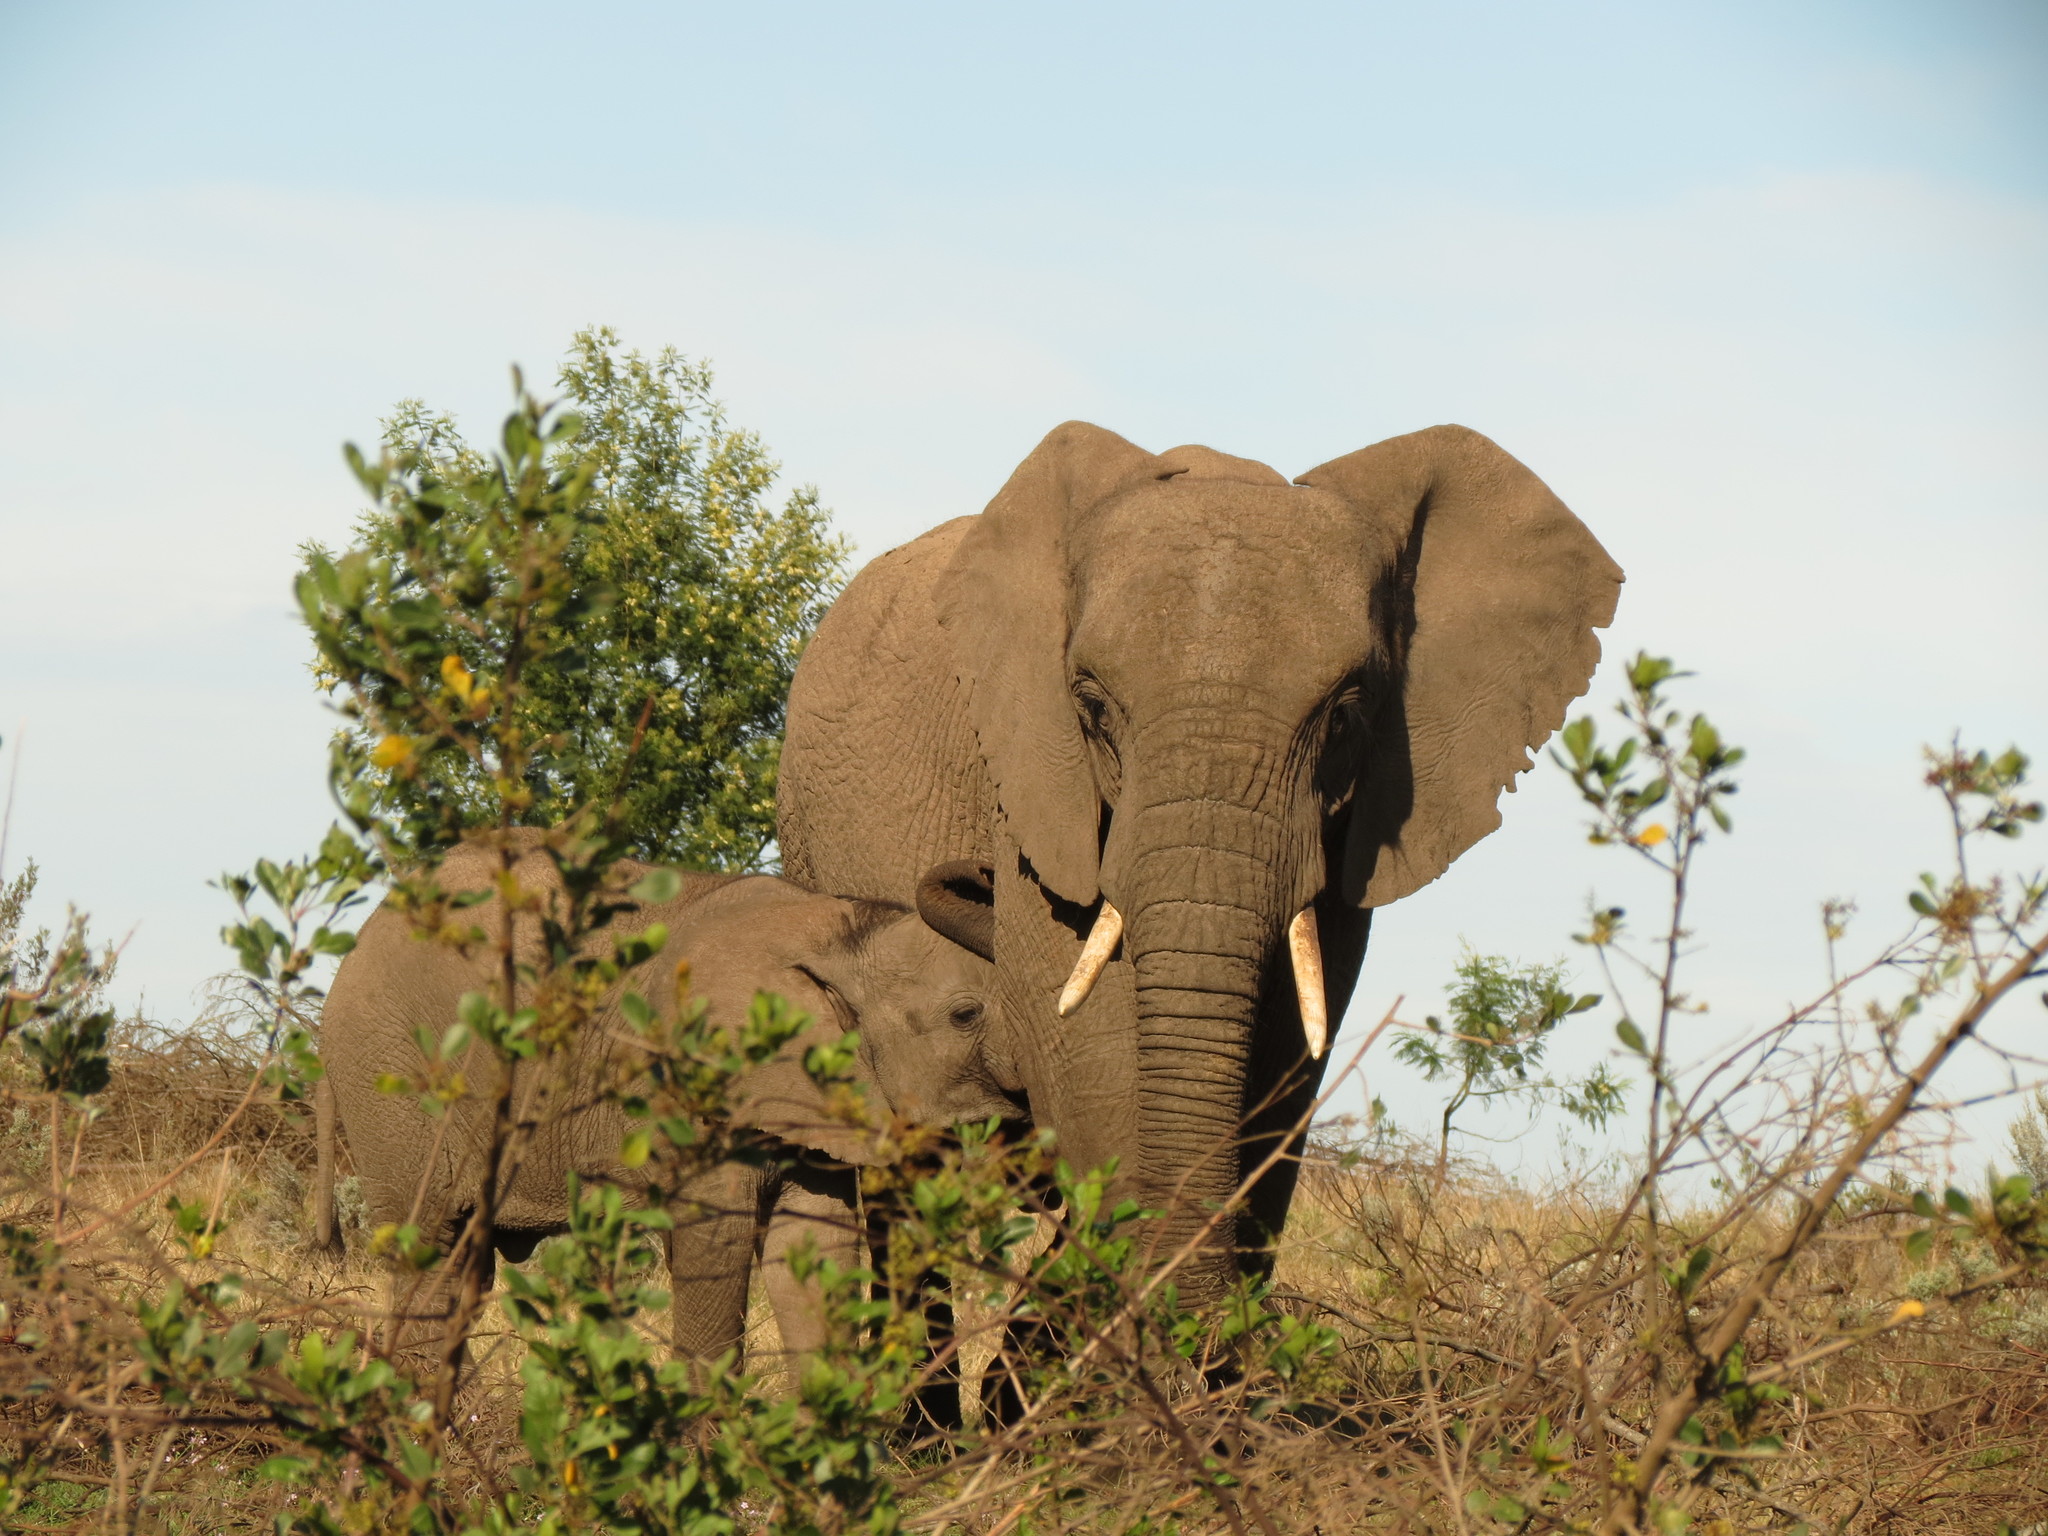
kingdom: Animalia
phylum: Chordata
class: Mammalia
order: Proboscidea
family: Elephantidae
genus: Loxodonta
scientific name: Loxodonta africana
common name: African elephant
